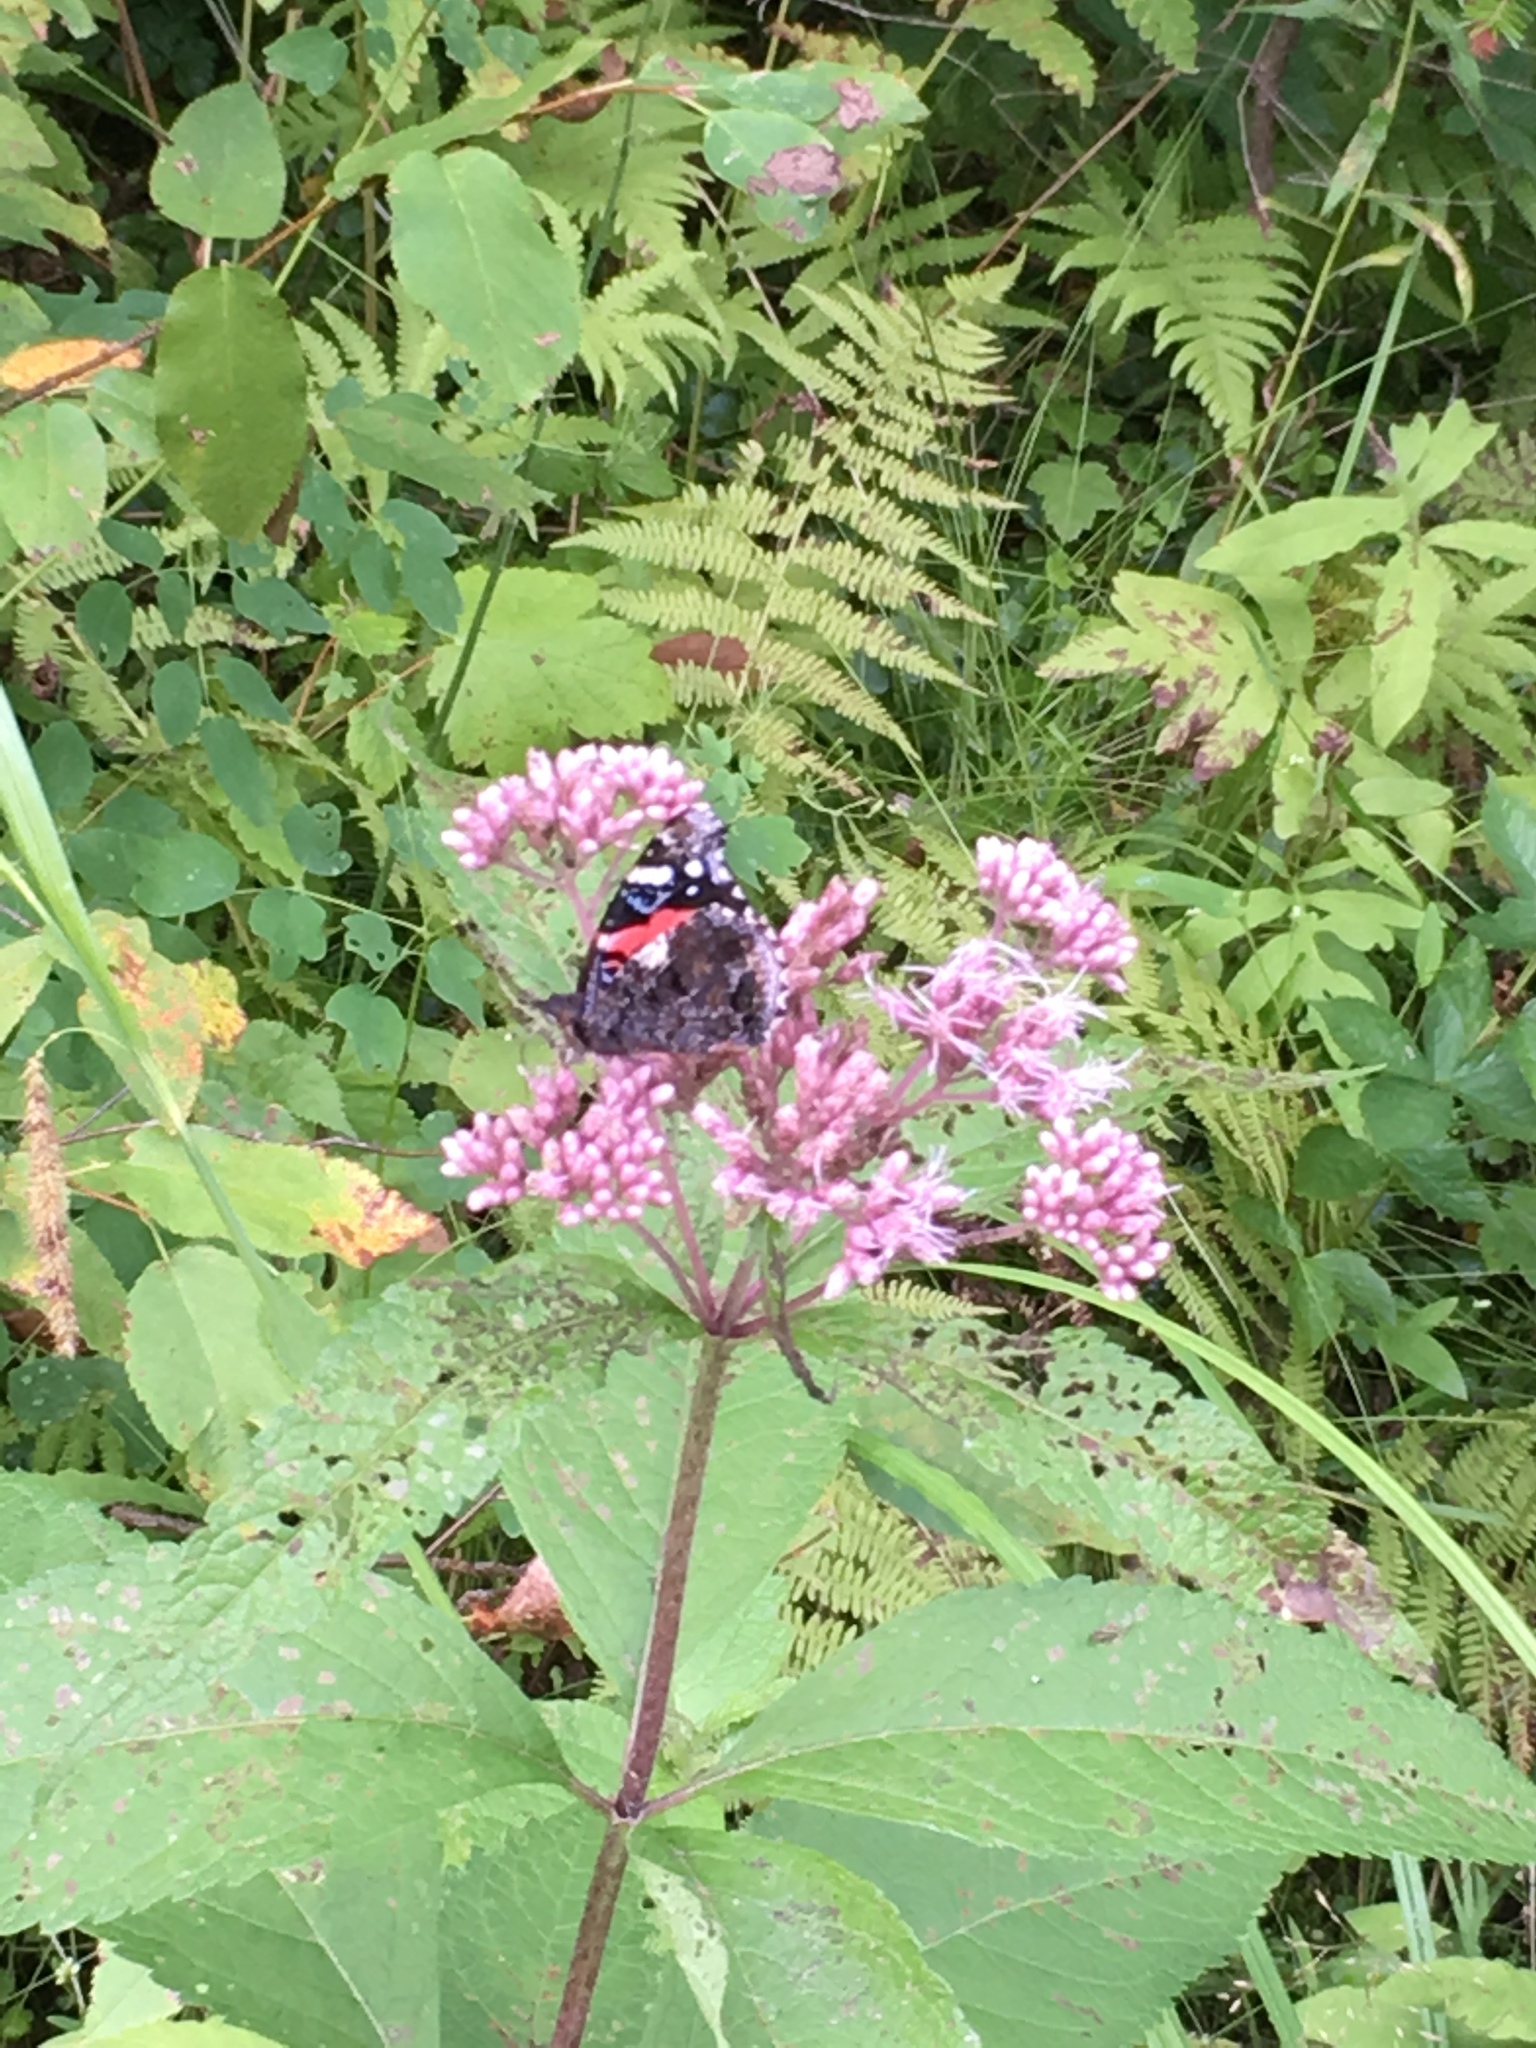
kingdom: Animalia
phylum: Arthropoda
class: Insecta
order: Lepidoptera
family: Nymphalidae
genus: Vanessa
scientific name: Vanessa atalanta
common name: Red admiral
